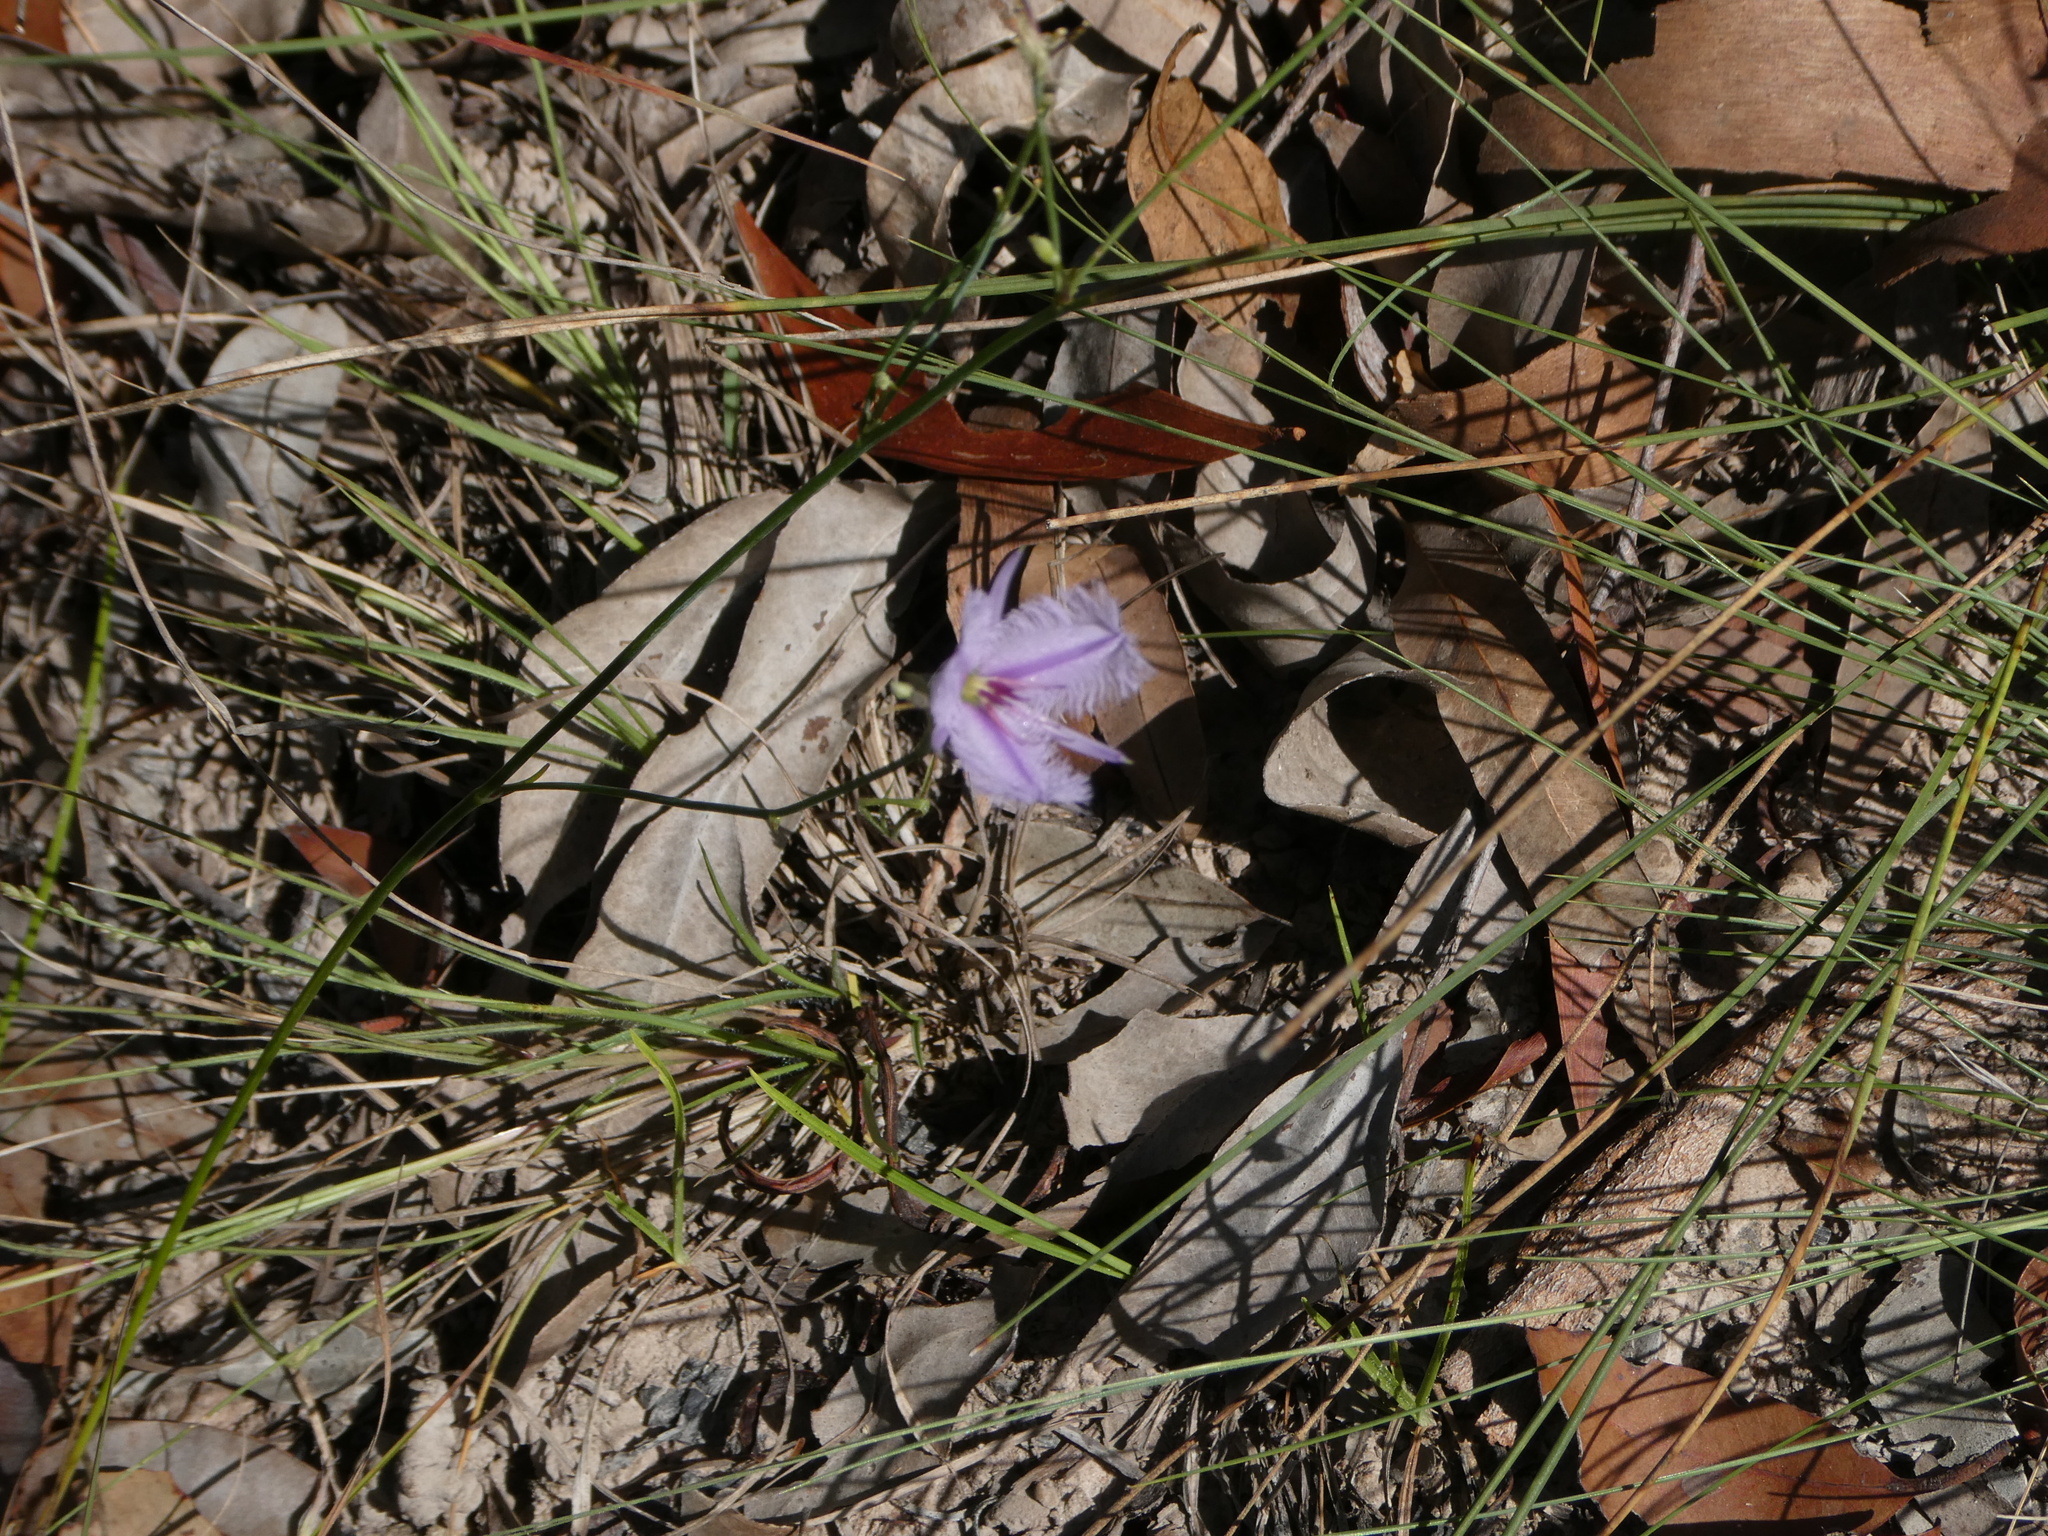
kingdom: Plantae
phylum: Tracheophyta
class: Liliopsida
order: Asparagales
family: Asparagaceae
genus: Thysanotus
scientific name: Thysanotus tuberosus
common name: Common fringed-lily
